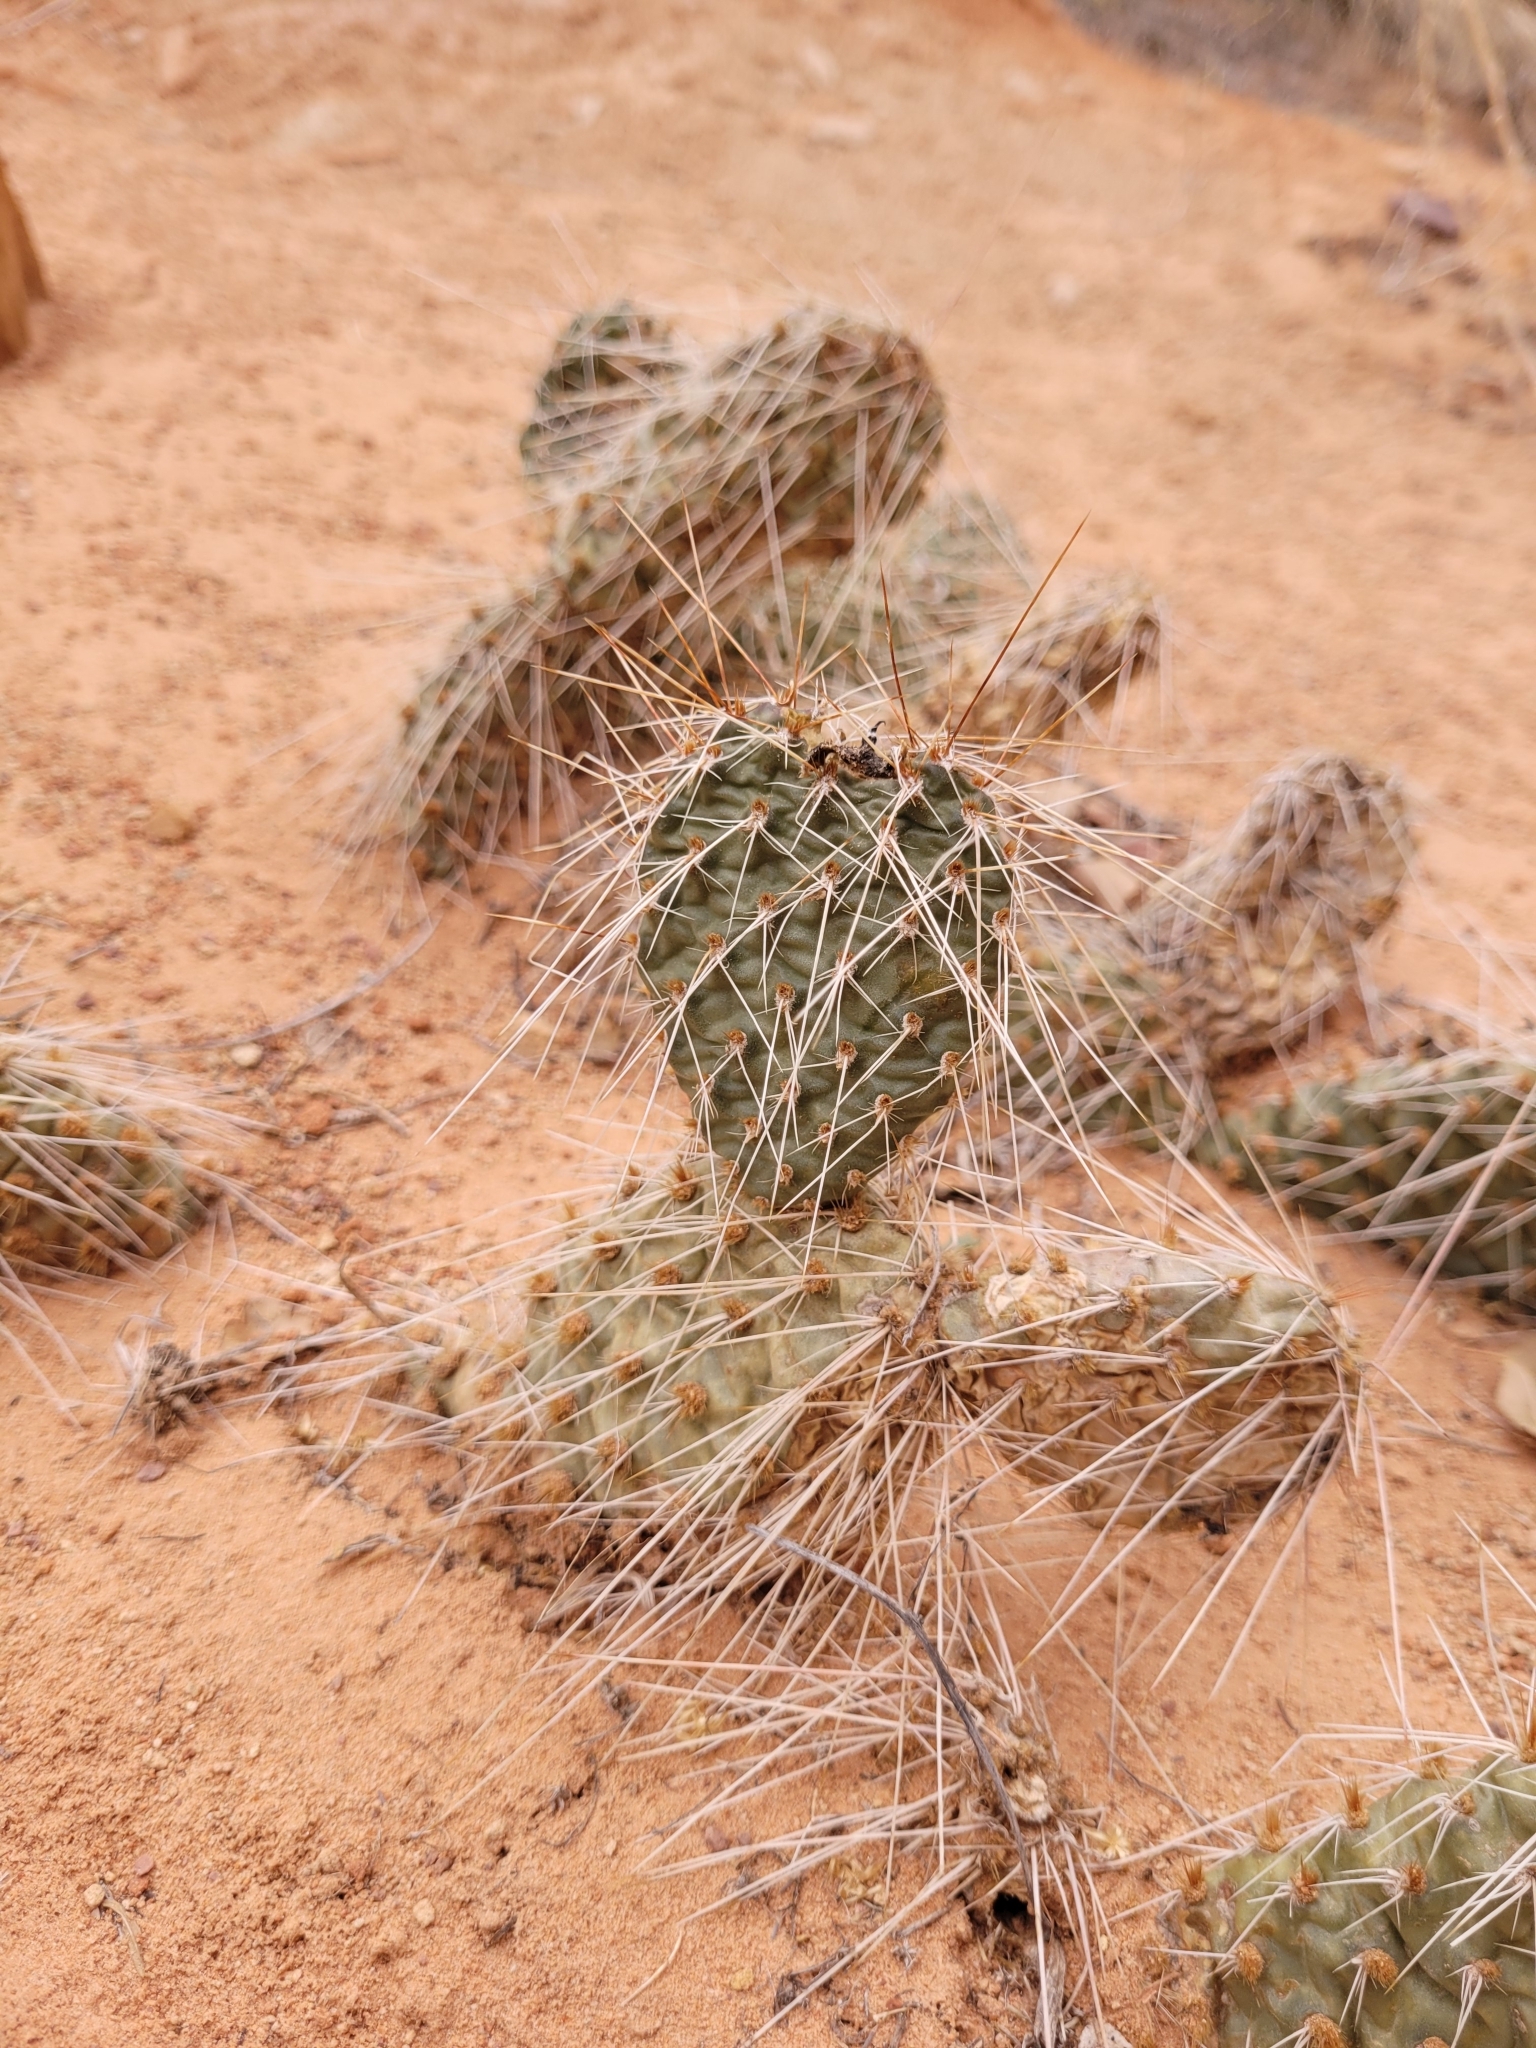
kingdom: Plantae
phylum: Tracheophyta
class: Magnoliopsida
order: Caryophyllales
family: Cactaceae
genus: Opuntia
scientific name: Opuntia polyacantha
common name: Plains prickly-pear
